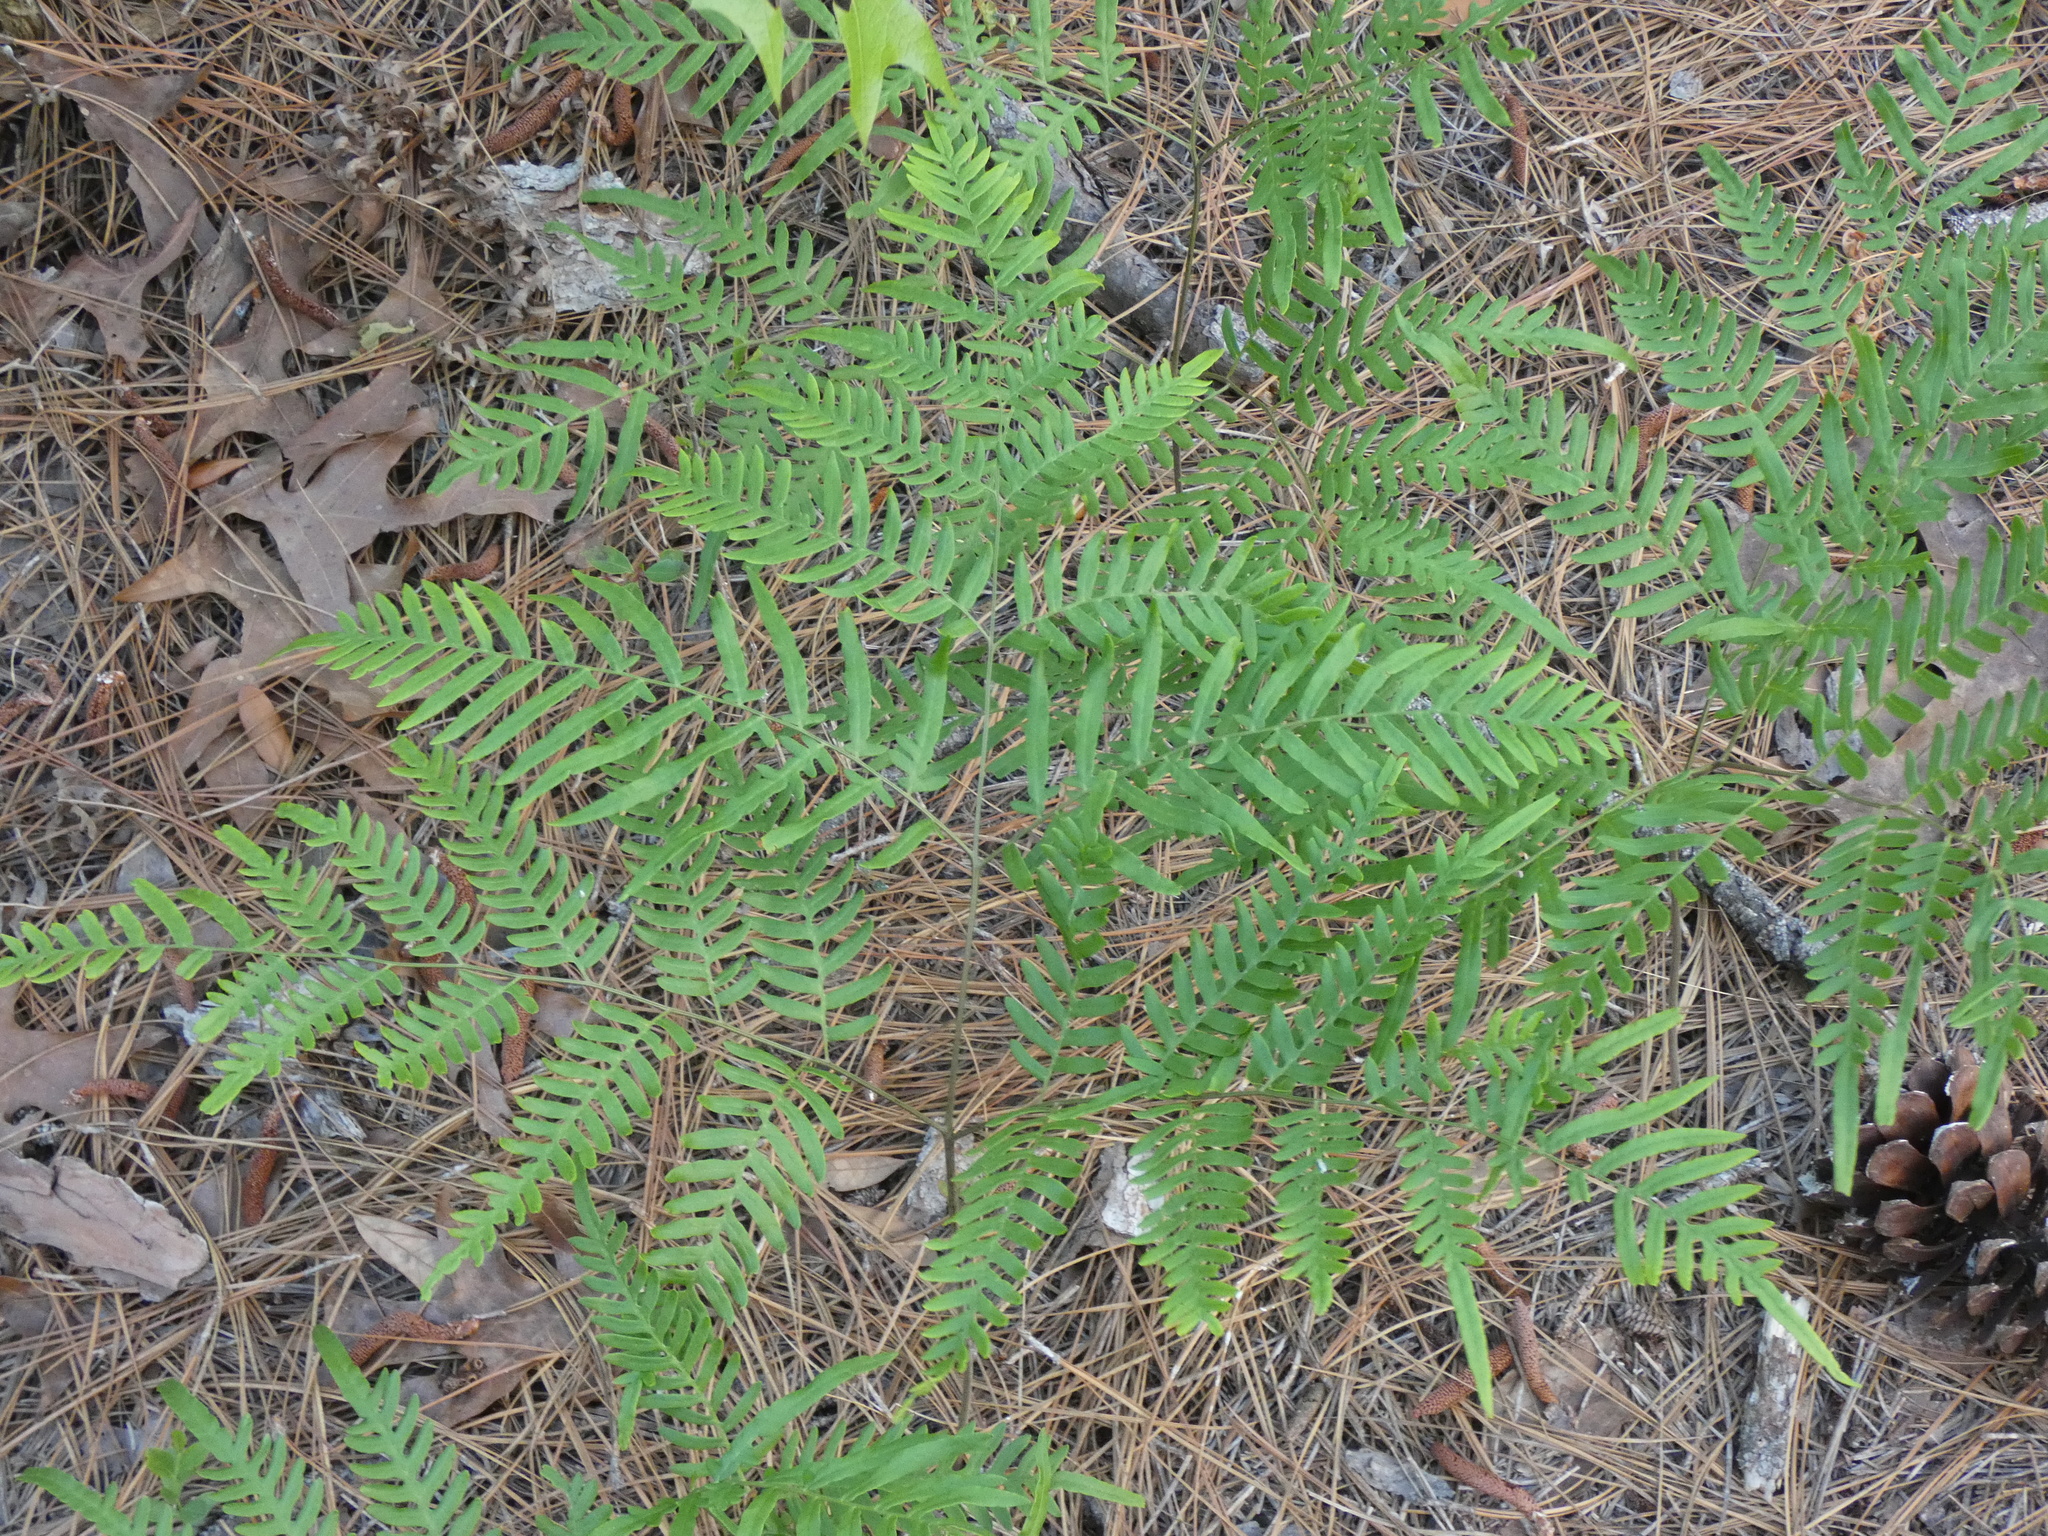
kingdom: Plantae
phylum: Tracheophyta
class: Polypodiopsida
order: Polypodiales
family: Dennstaedtiaceae
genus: Pteridium
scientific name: Pteridium
